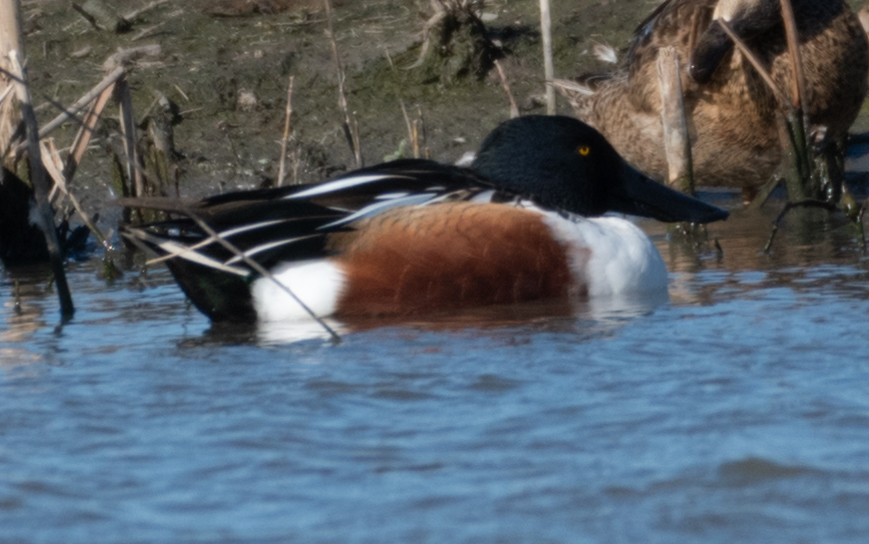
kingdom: Animalia
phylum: Chordata
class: Aves
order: Anseriformes
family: Anatidae
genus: Spatula
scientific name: Spatula clypeata
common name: Northern shoveler
